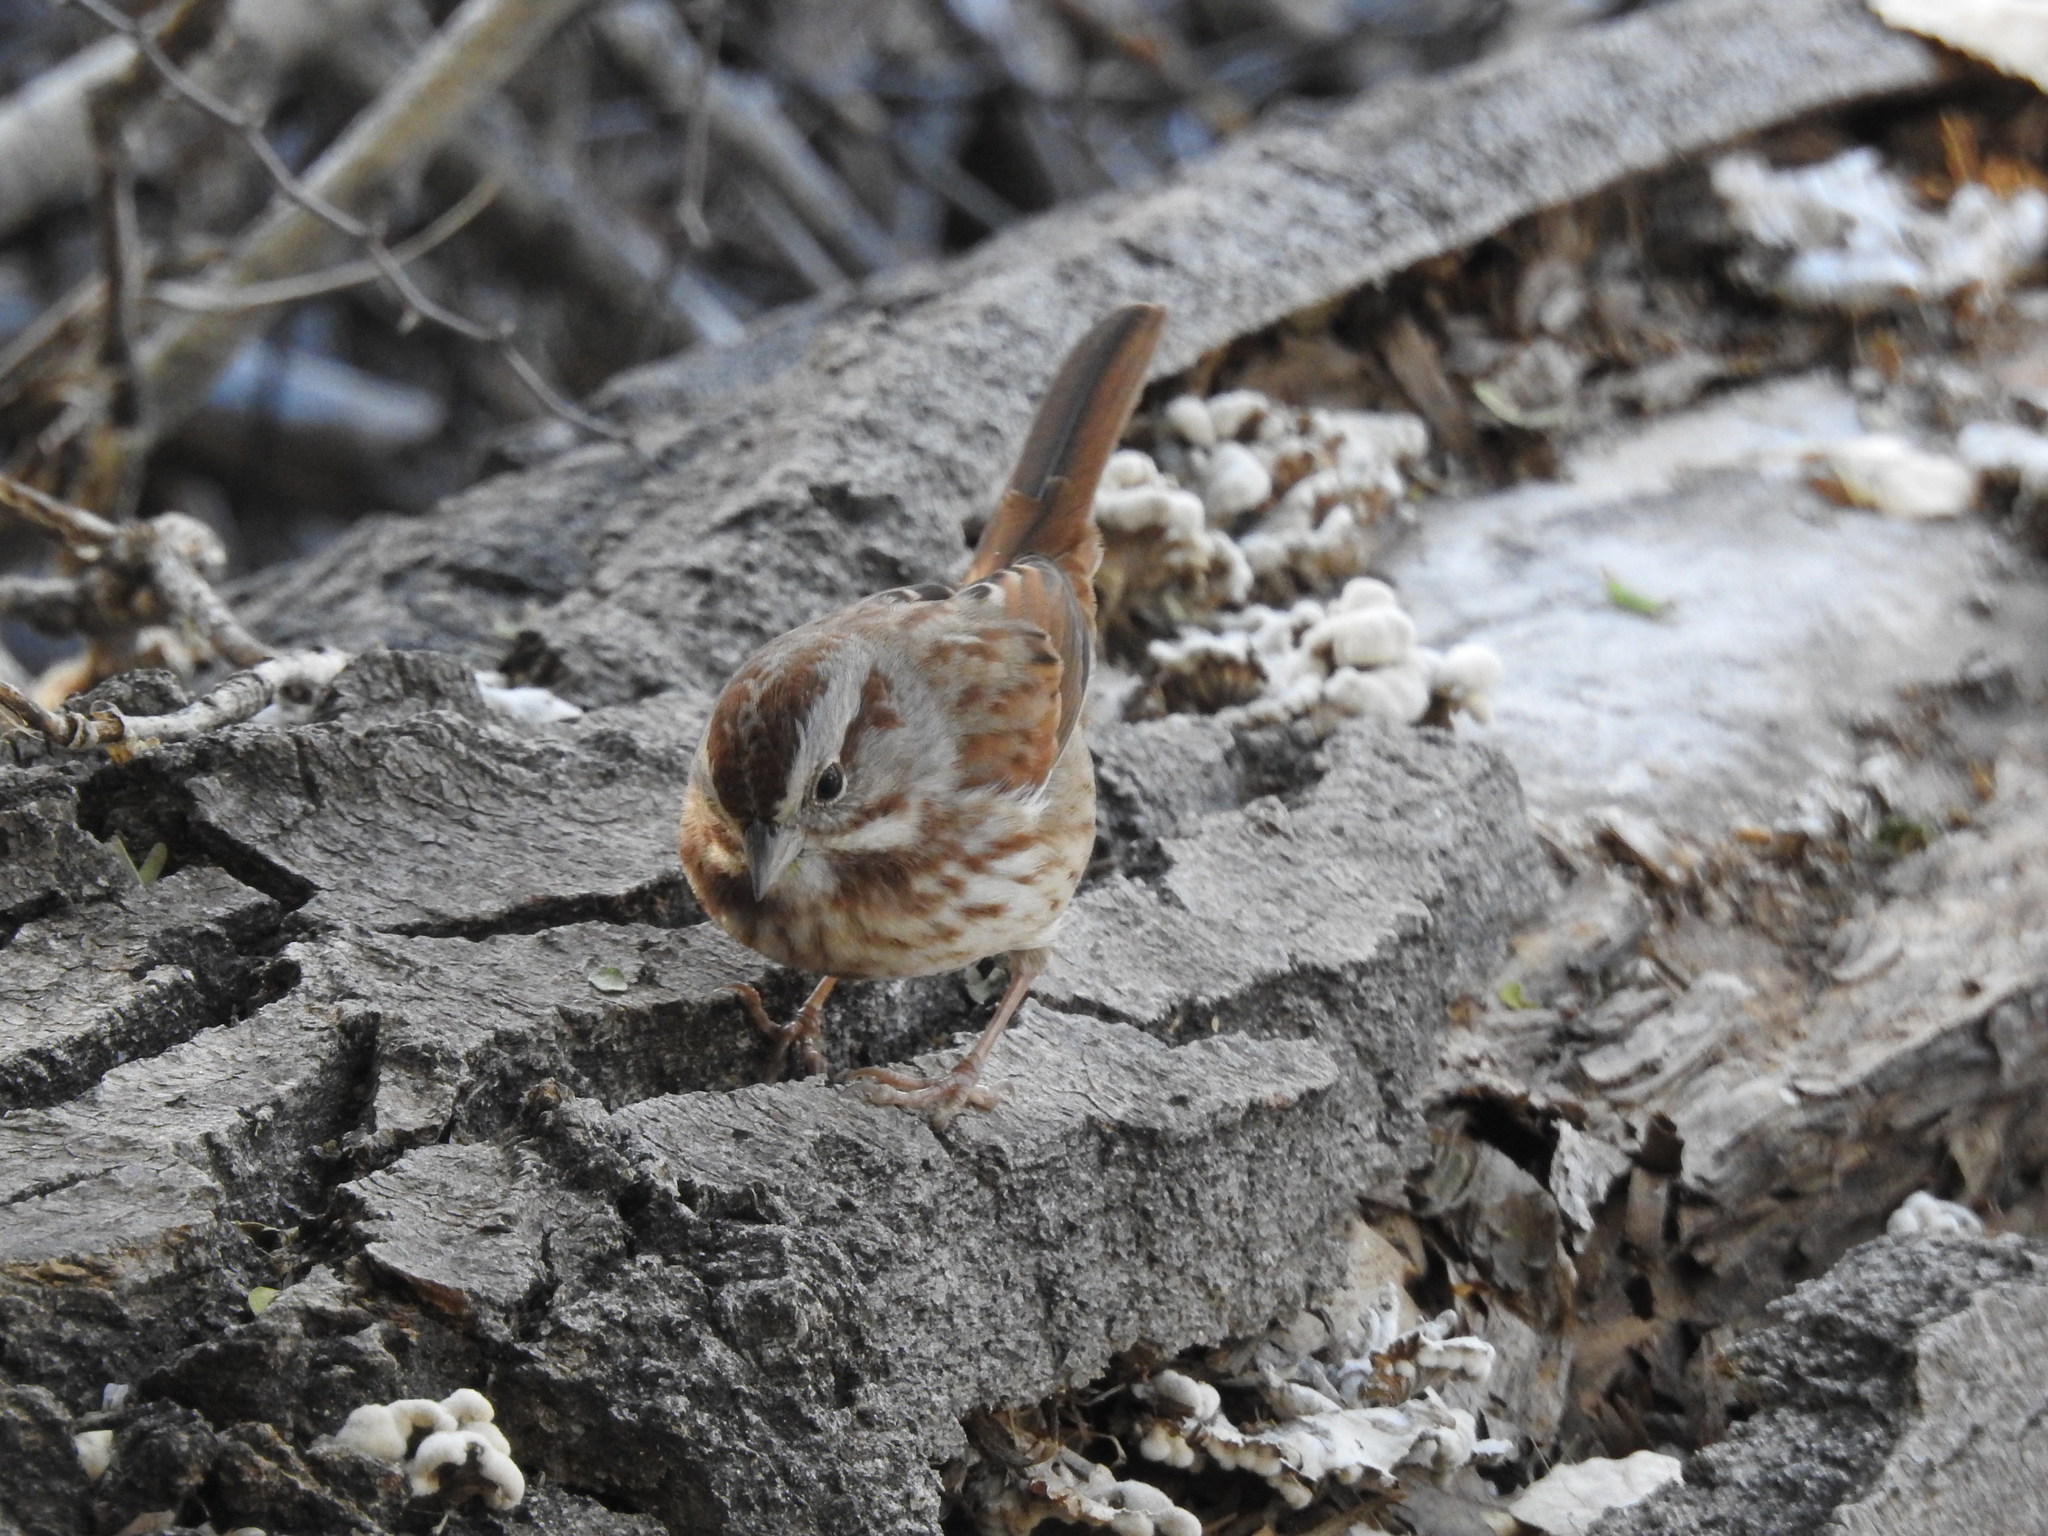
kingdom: Animalia
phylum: Chordata
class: Aves
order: Passeriformes
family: Passerellidae
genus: Melospiza
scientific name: Melospiza melodia
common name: Song sparrow
